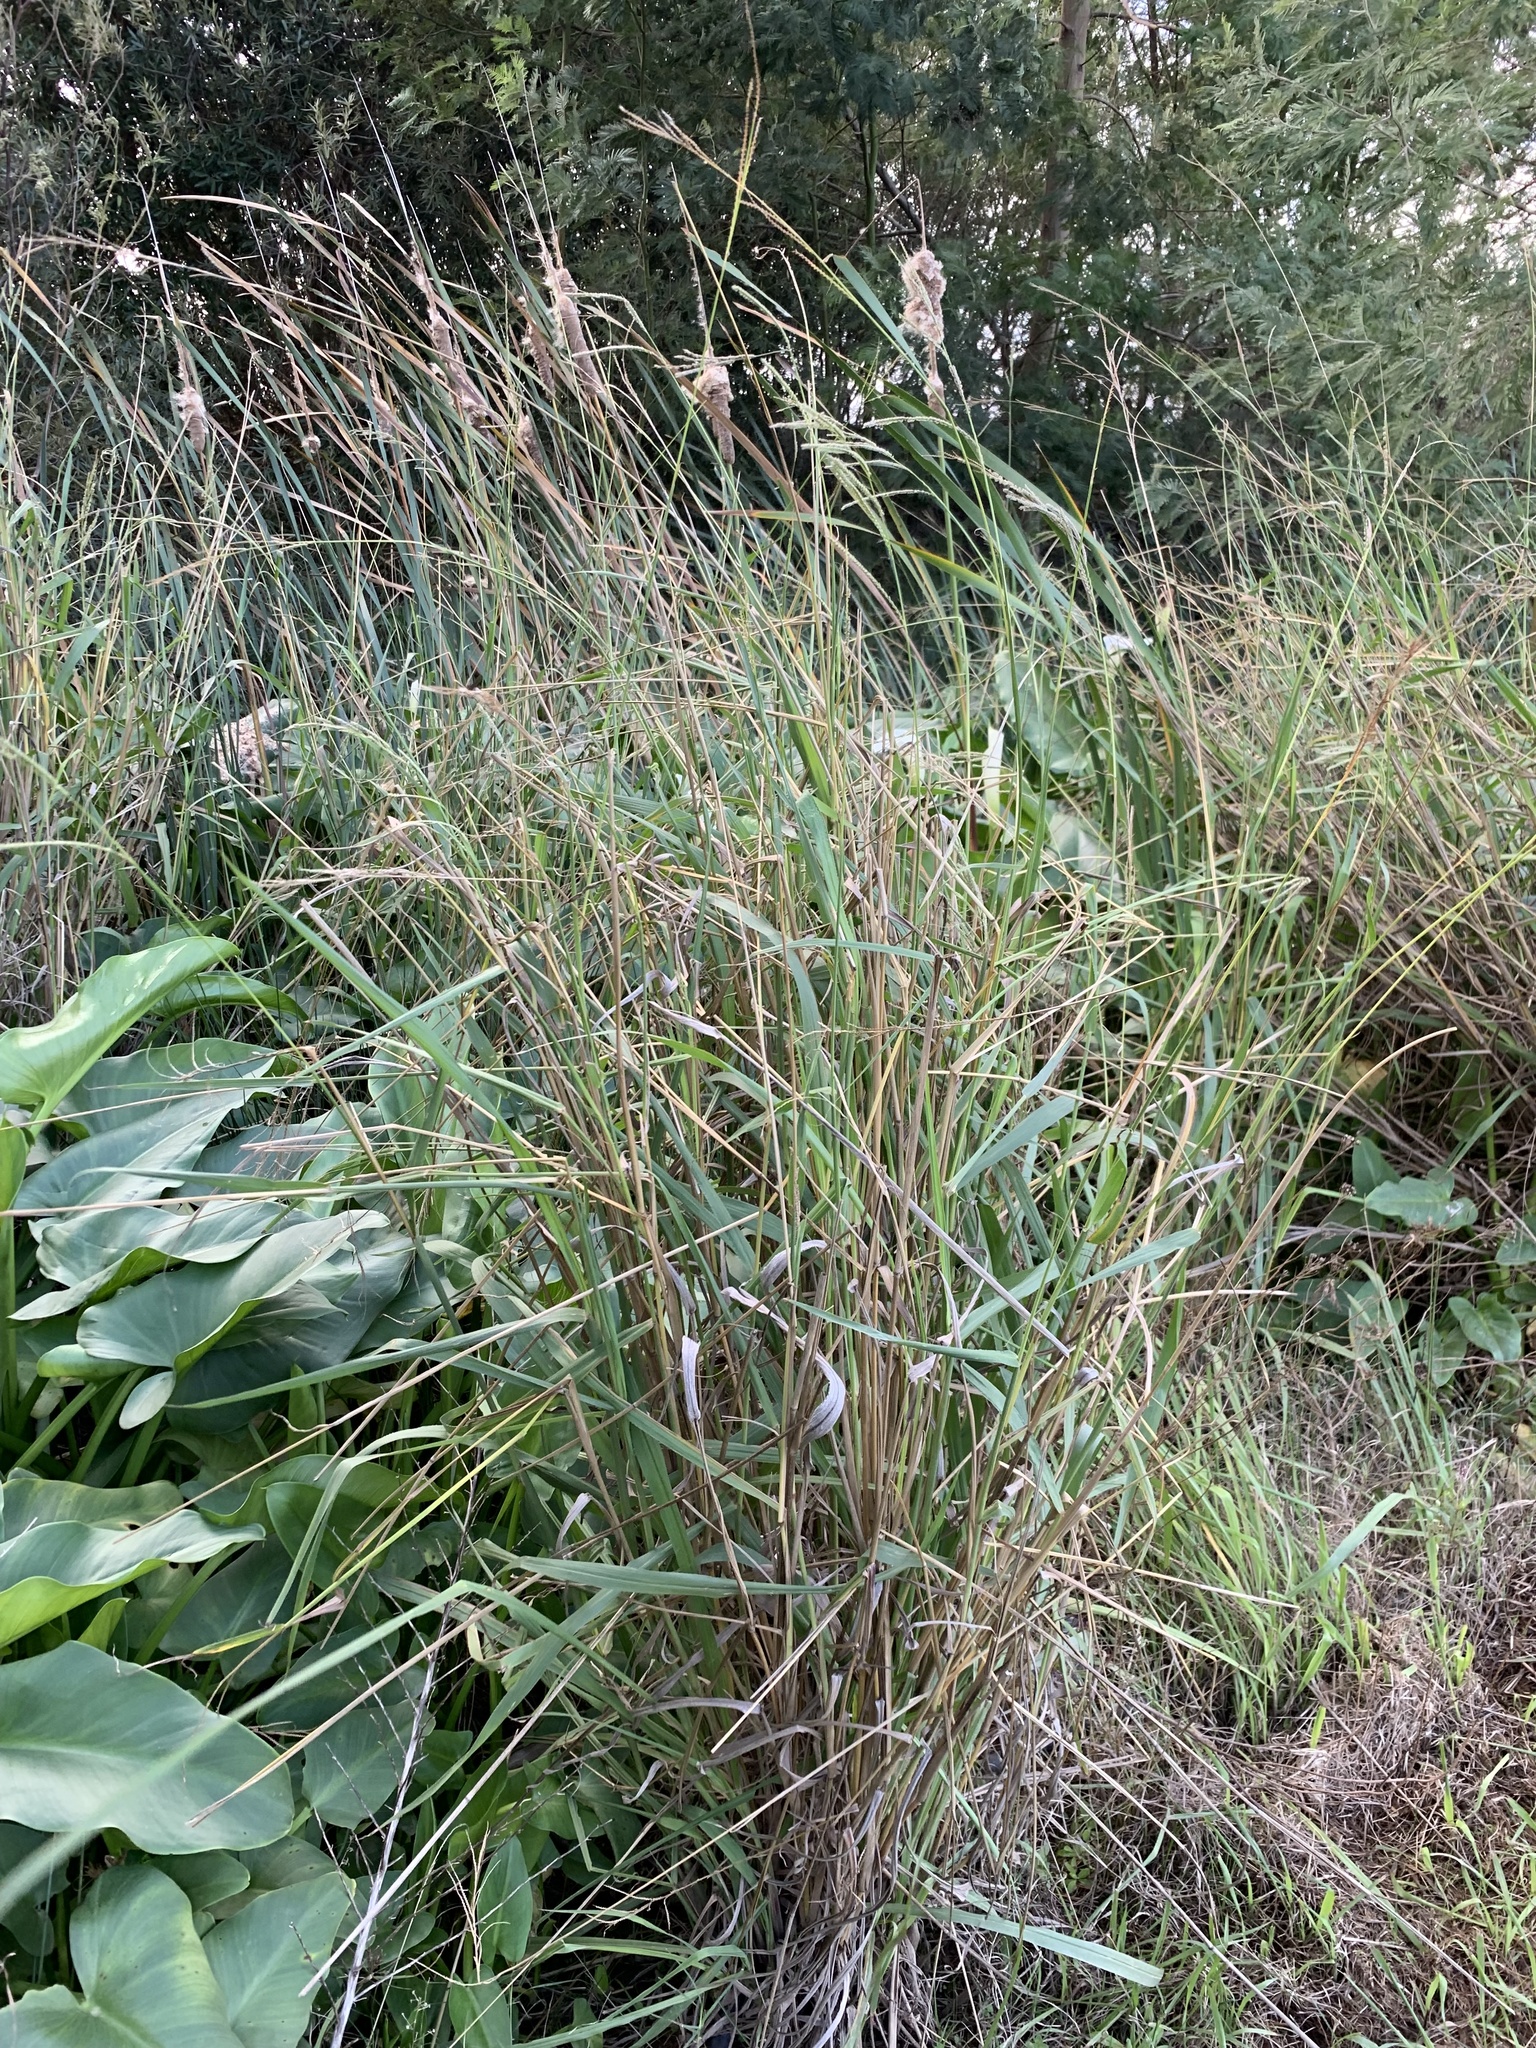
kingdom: Plantae
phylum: Tracheophyta
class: Liliopsida
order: Poales
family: Poaceae
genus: Paspalum
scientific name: Paspalum urvillei
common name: Vasey's grass
